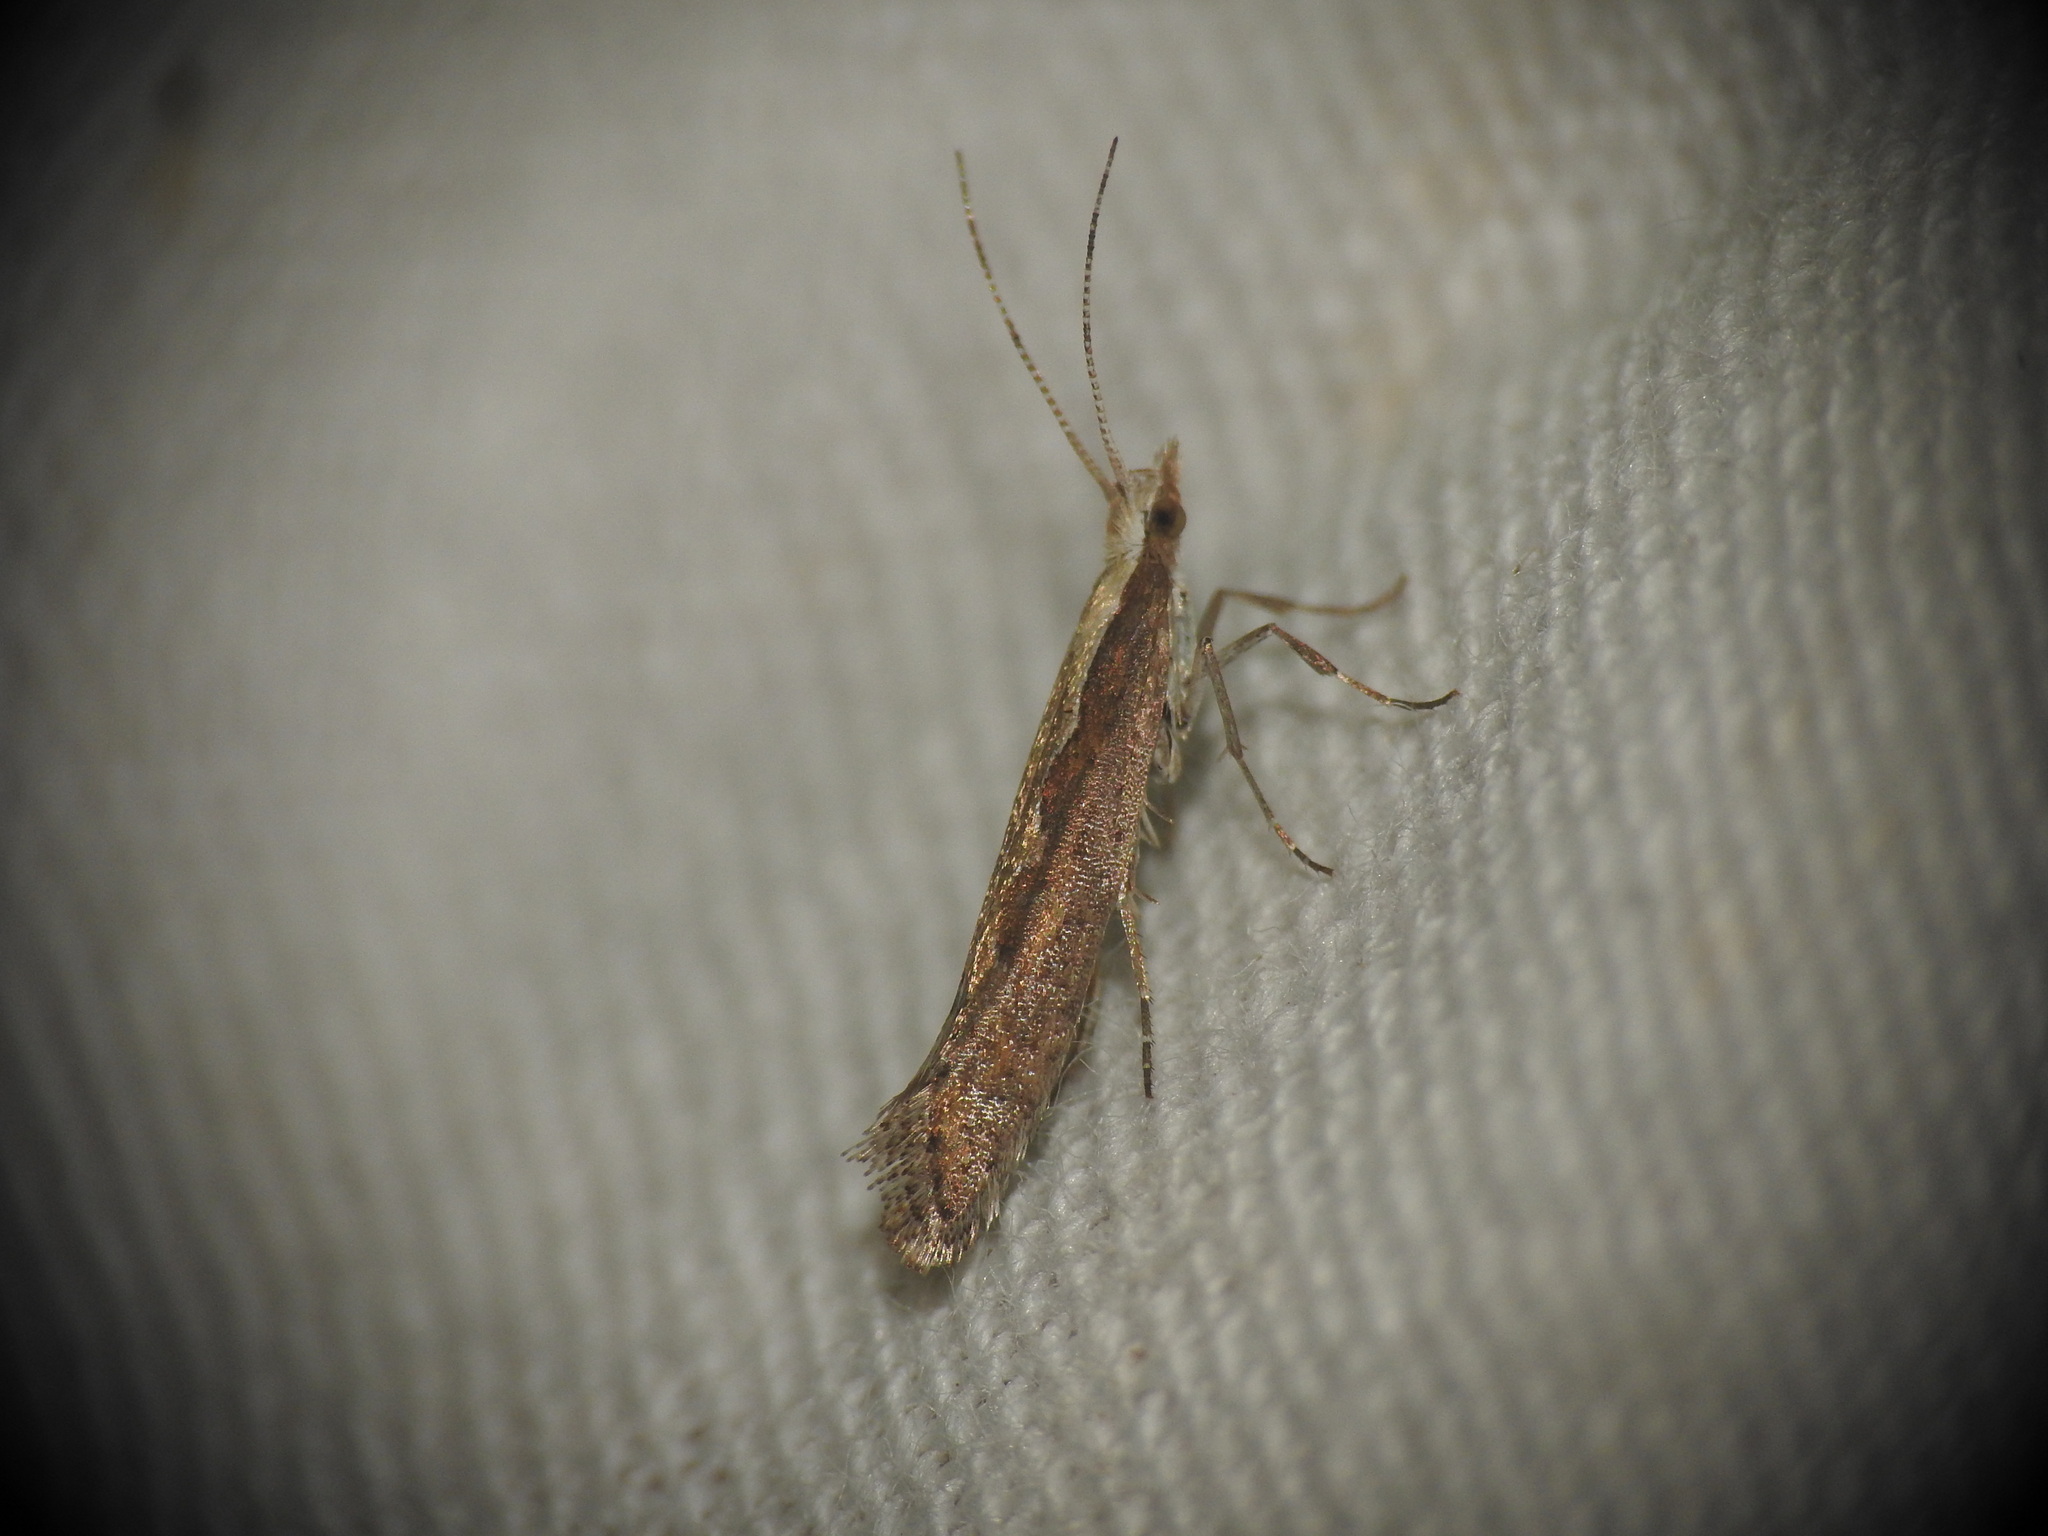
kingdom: Animalia
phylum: Arthropoda
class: Insecta
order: Lepidoptera
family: Plutellidae
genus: Plutella
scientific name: Plutella xylostella
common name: Diamond-back moth
